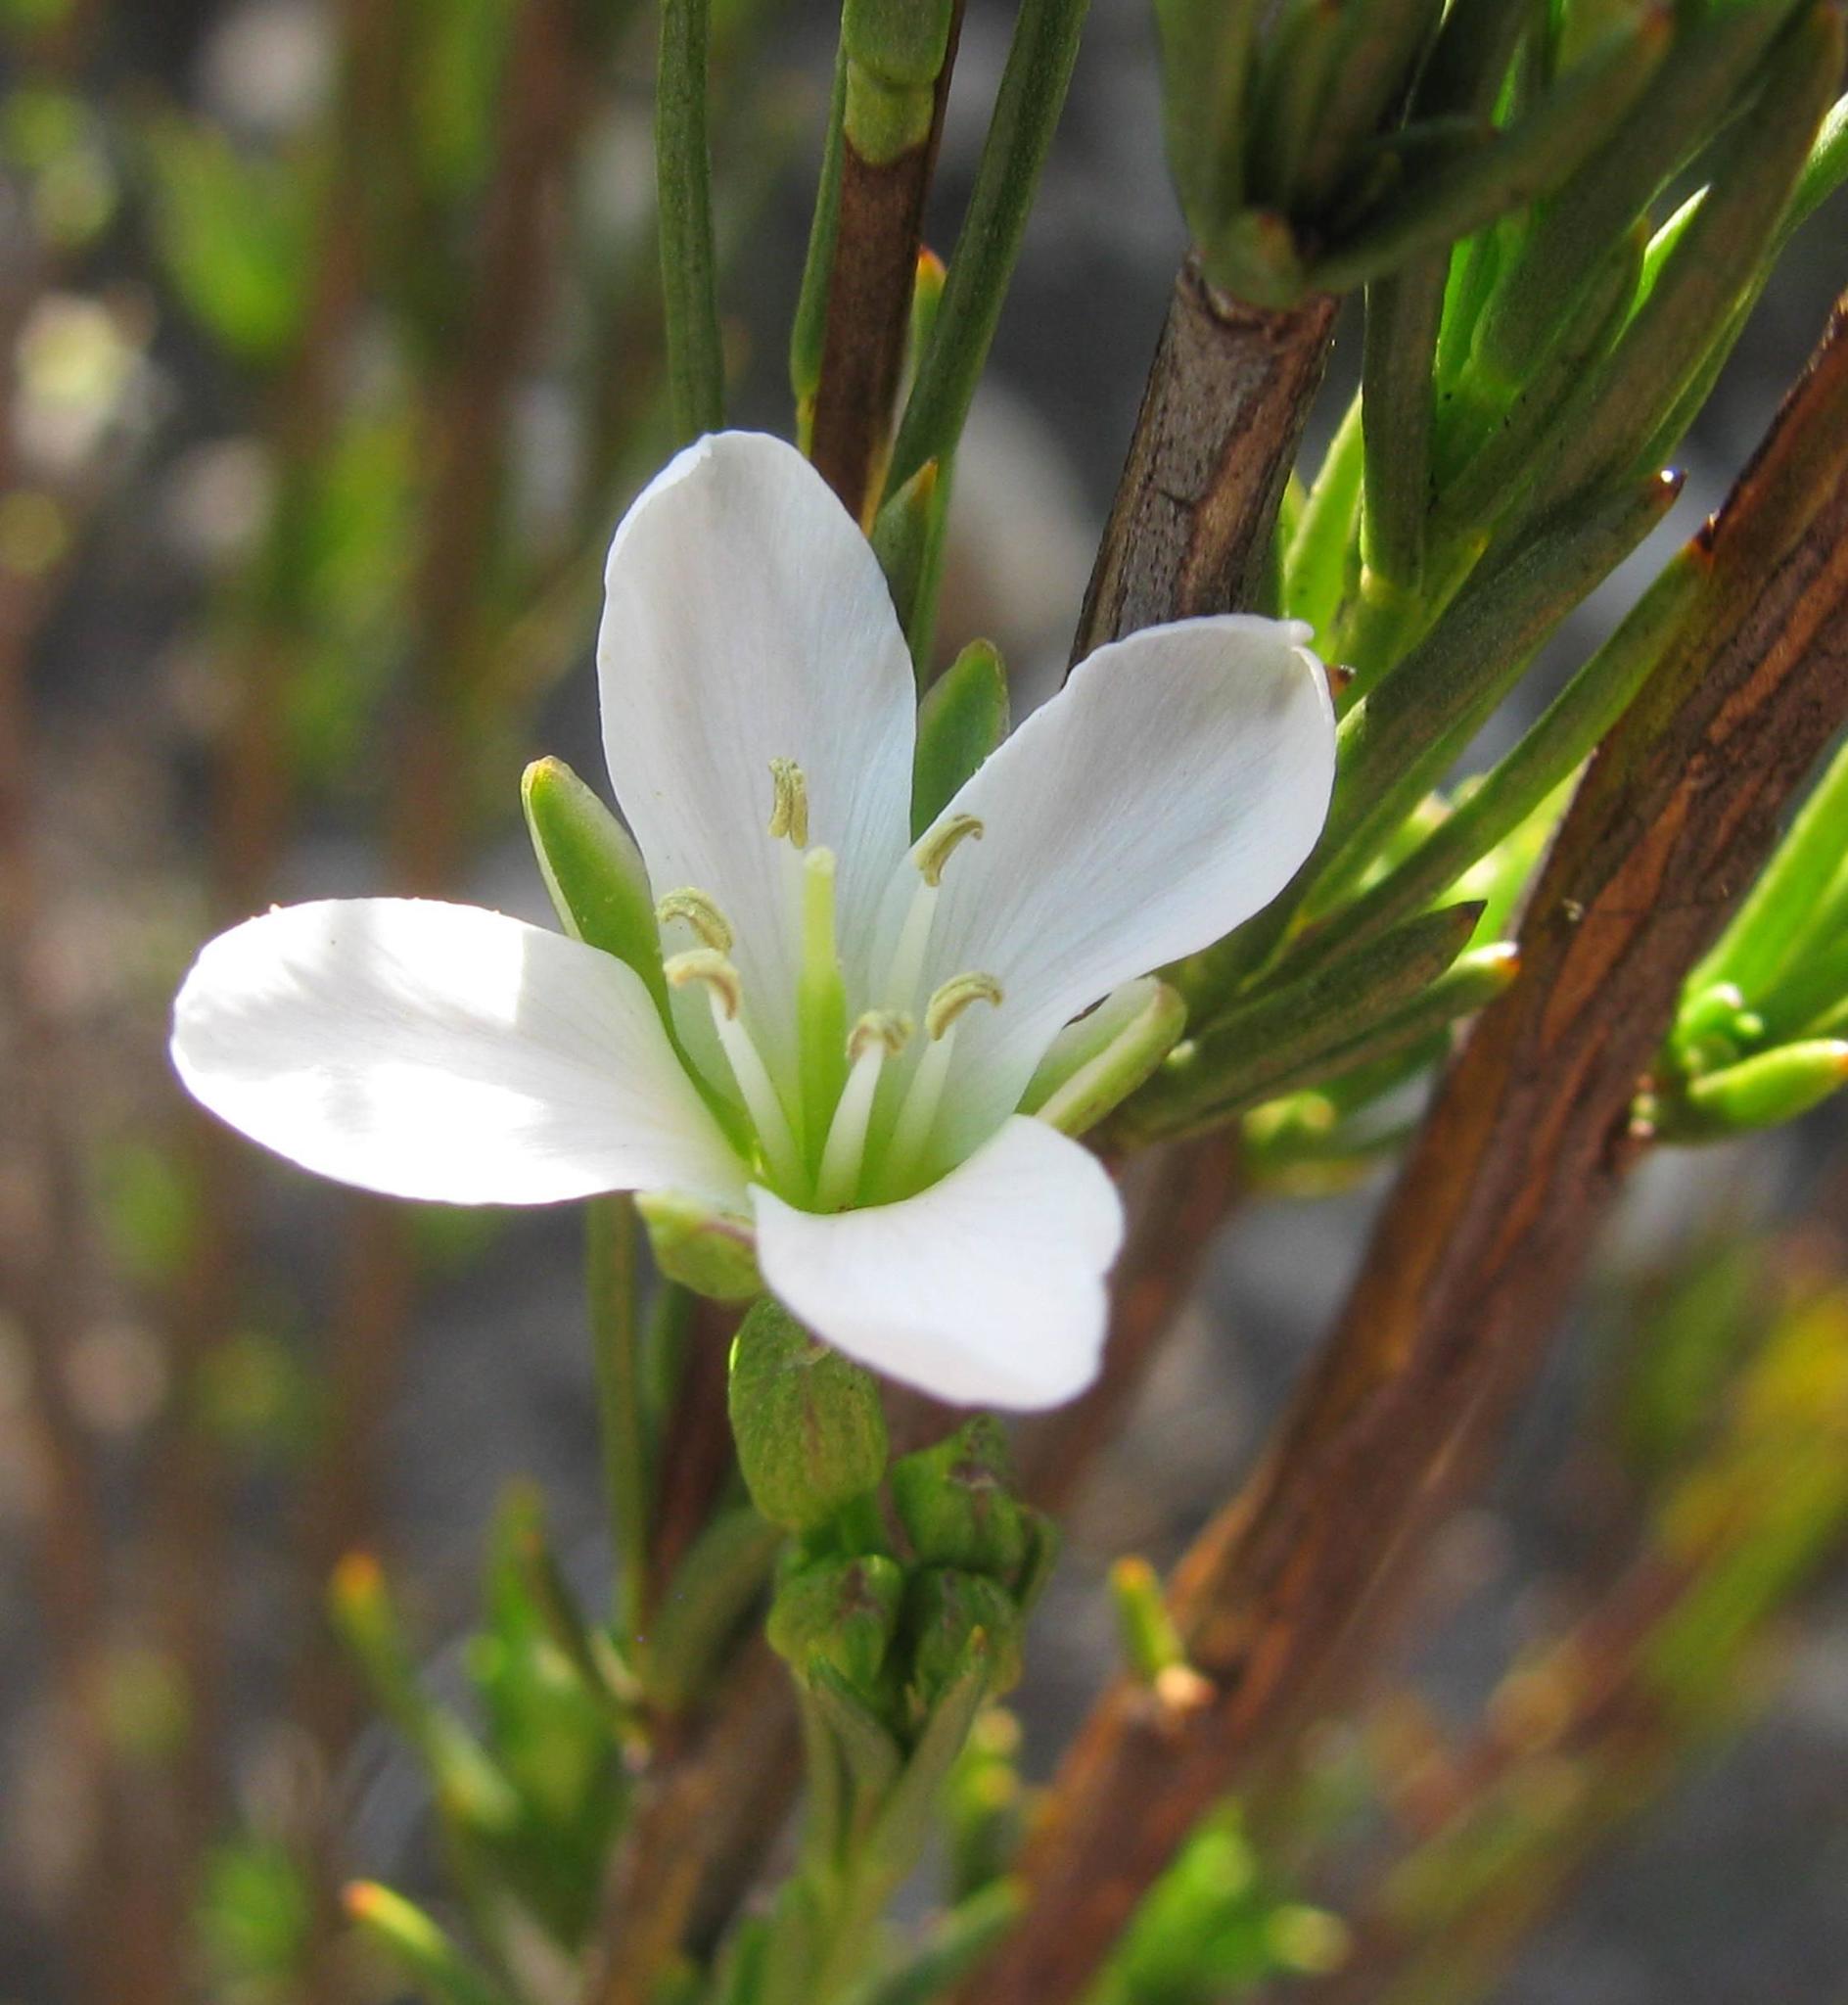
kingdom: Plantae
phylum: Tracheophyta
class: Magnoliopsida
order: Brassicales
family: Brassicaceae
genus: Heliophila
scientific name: Heliophila scoparia
